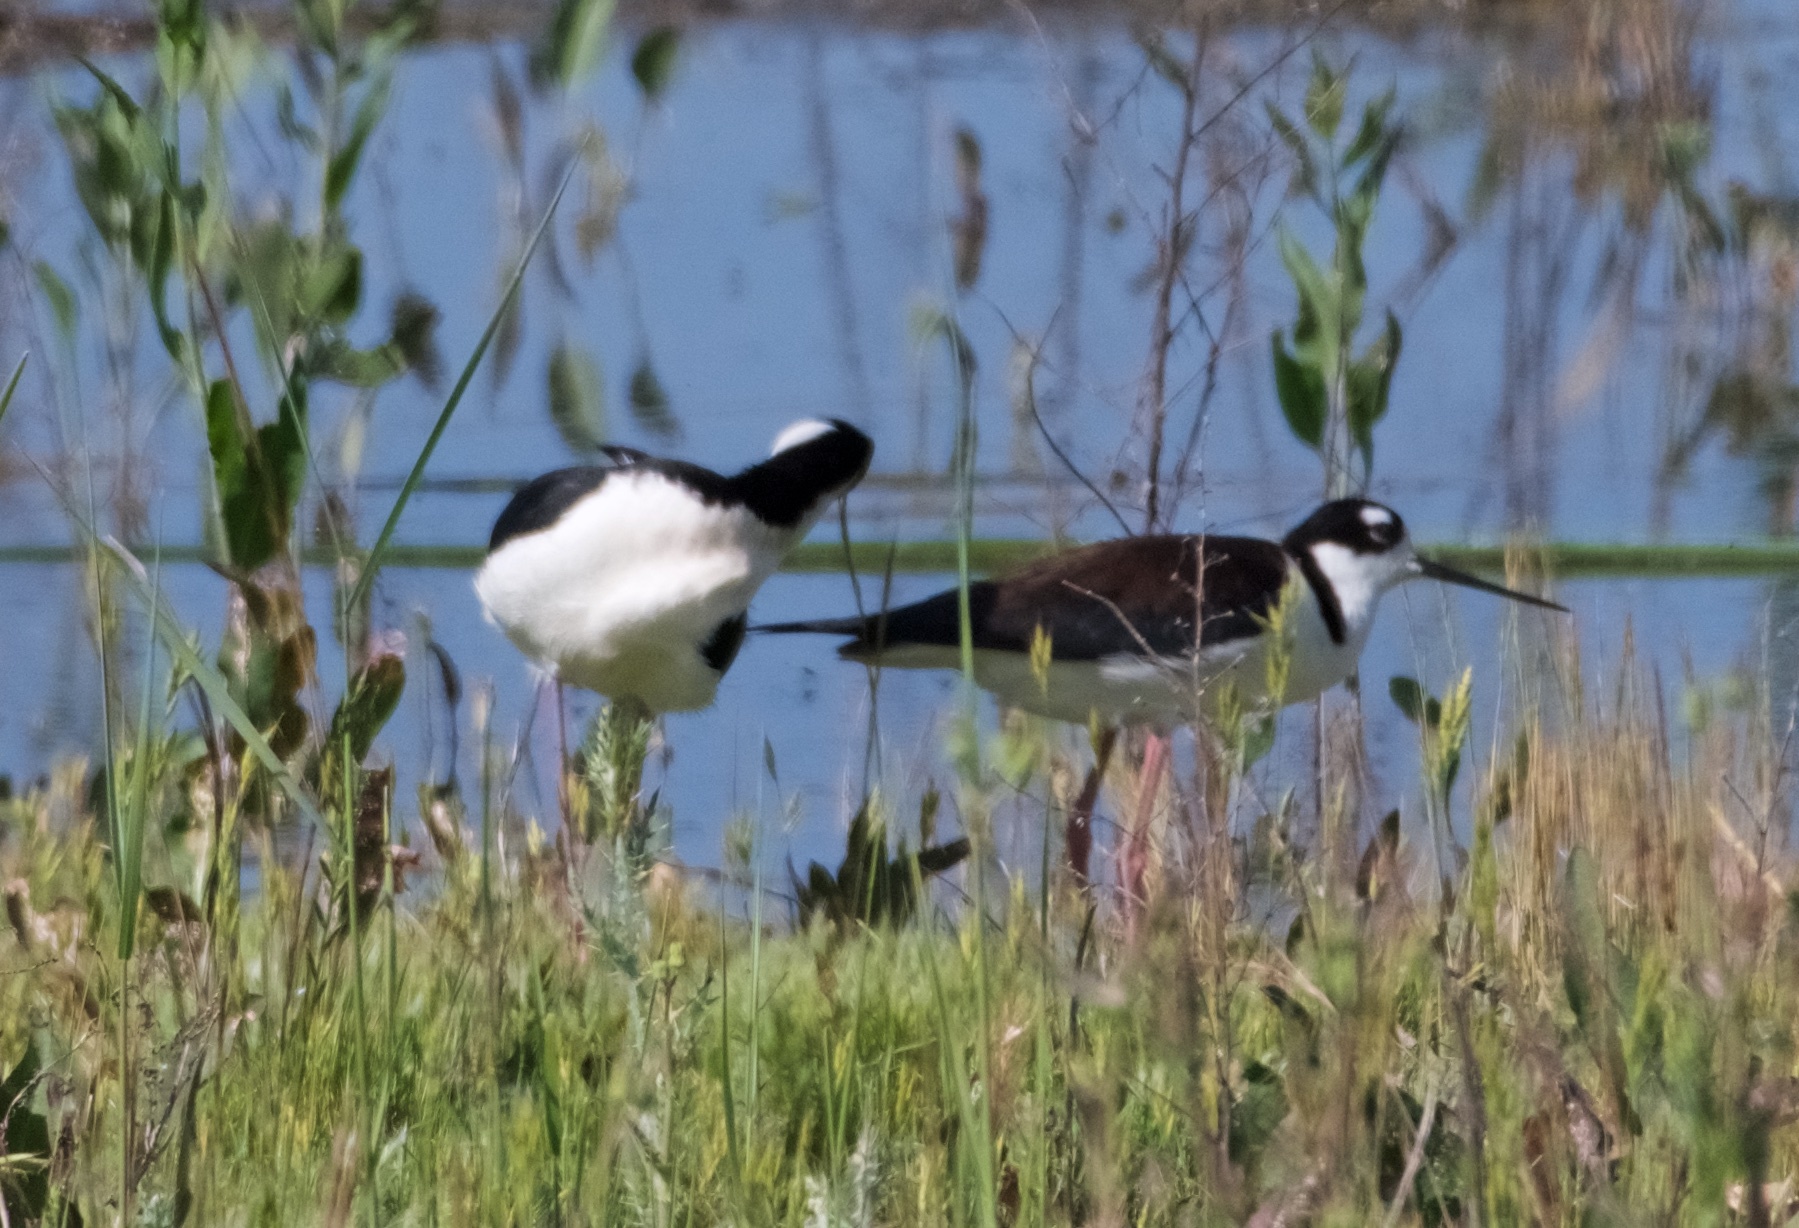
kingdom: Animalia
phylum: Chordata
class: Aves
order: Charadriiformes
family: Recurvirostridae
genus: Himantopus
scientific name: Himantopus mexicanus
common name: Black-necked stilt
